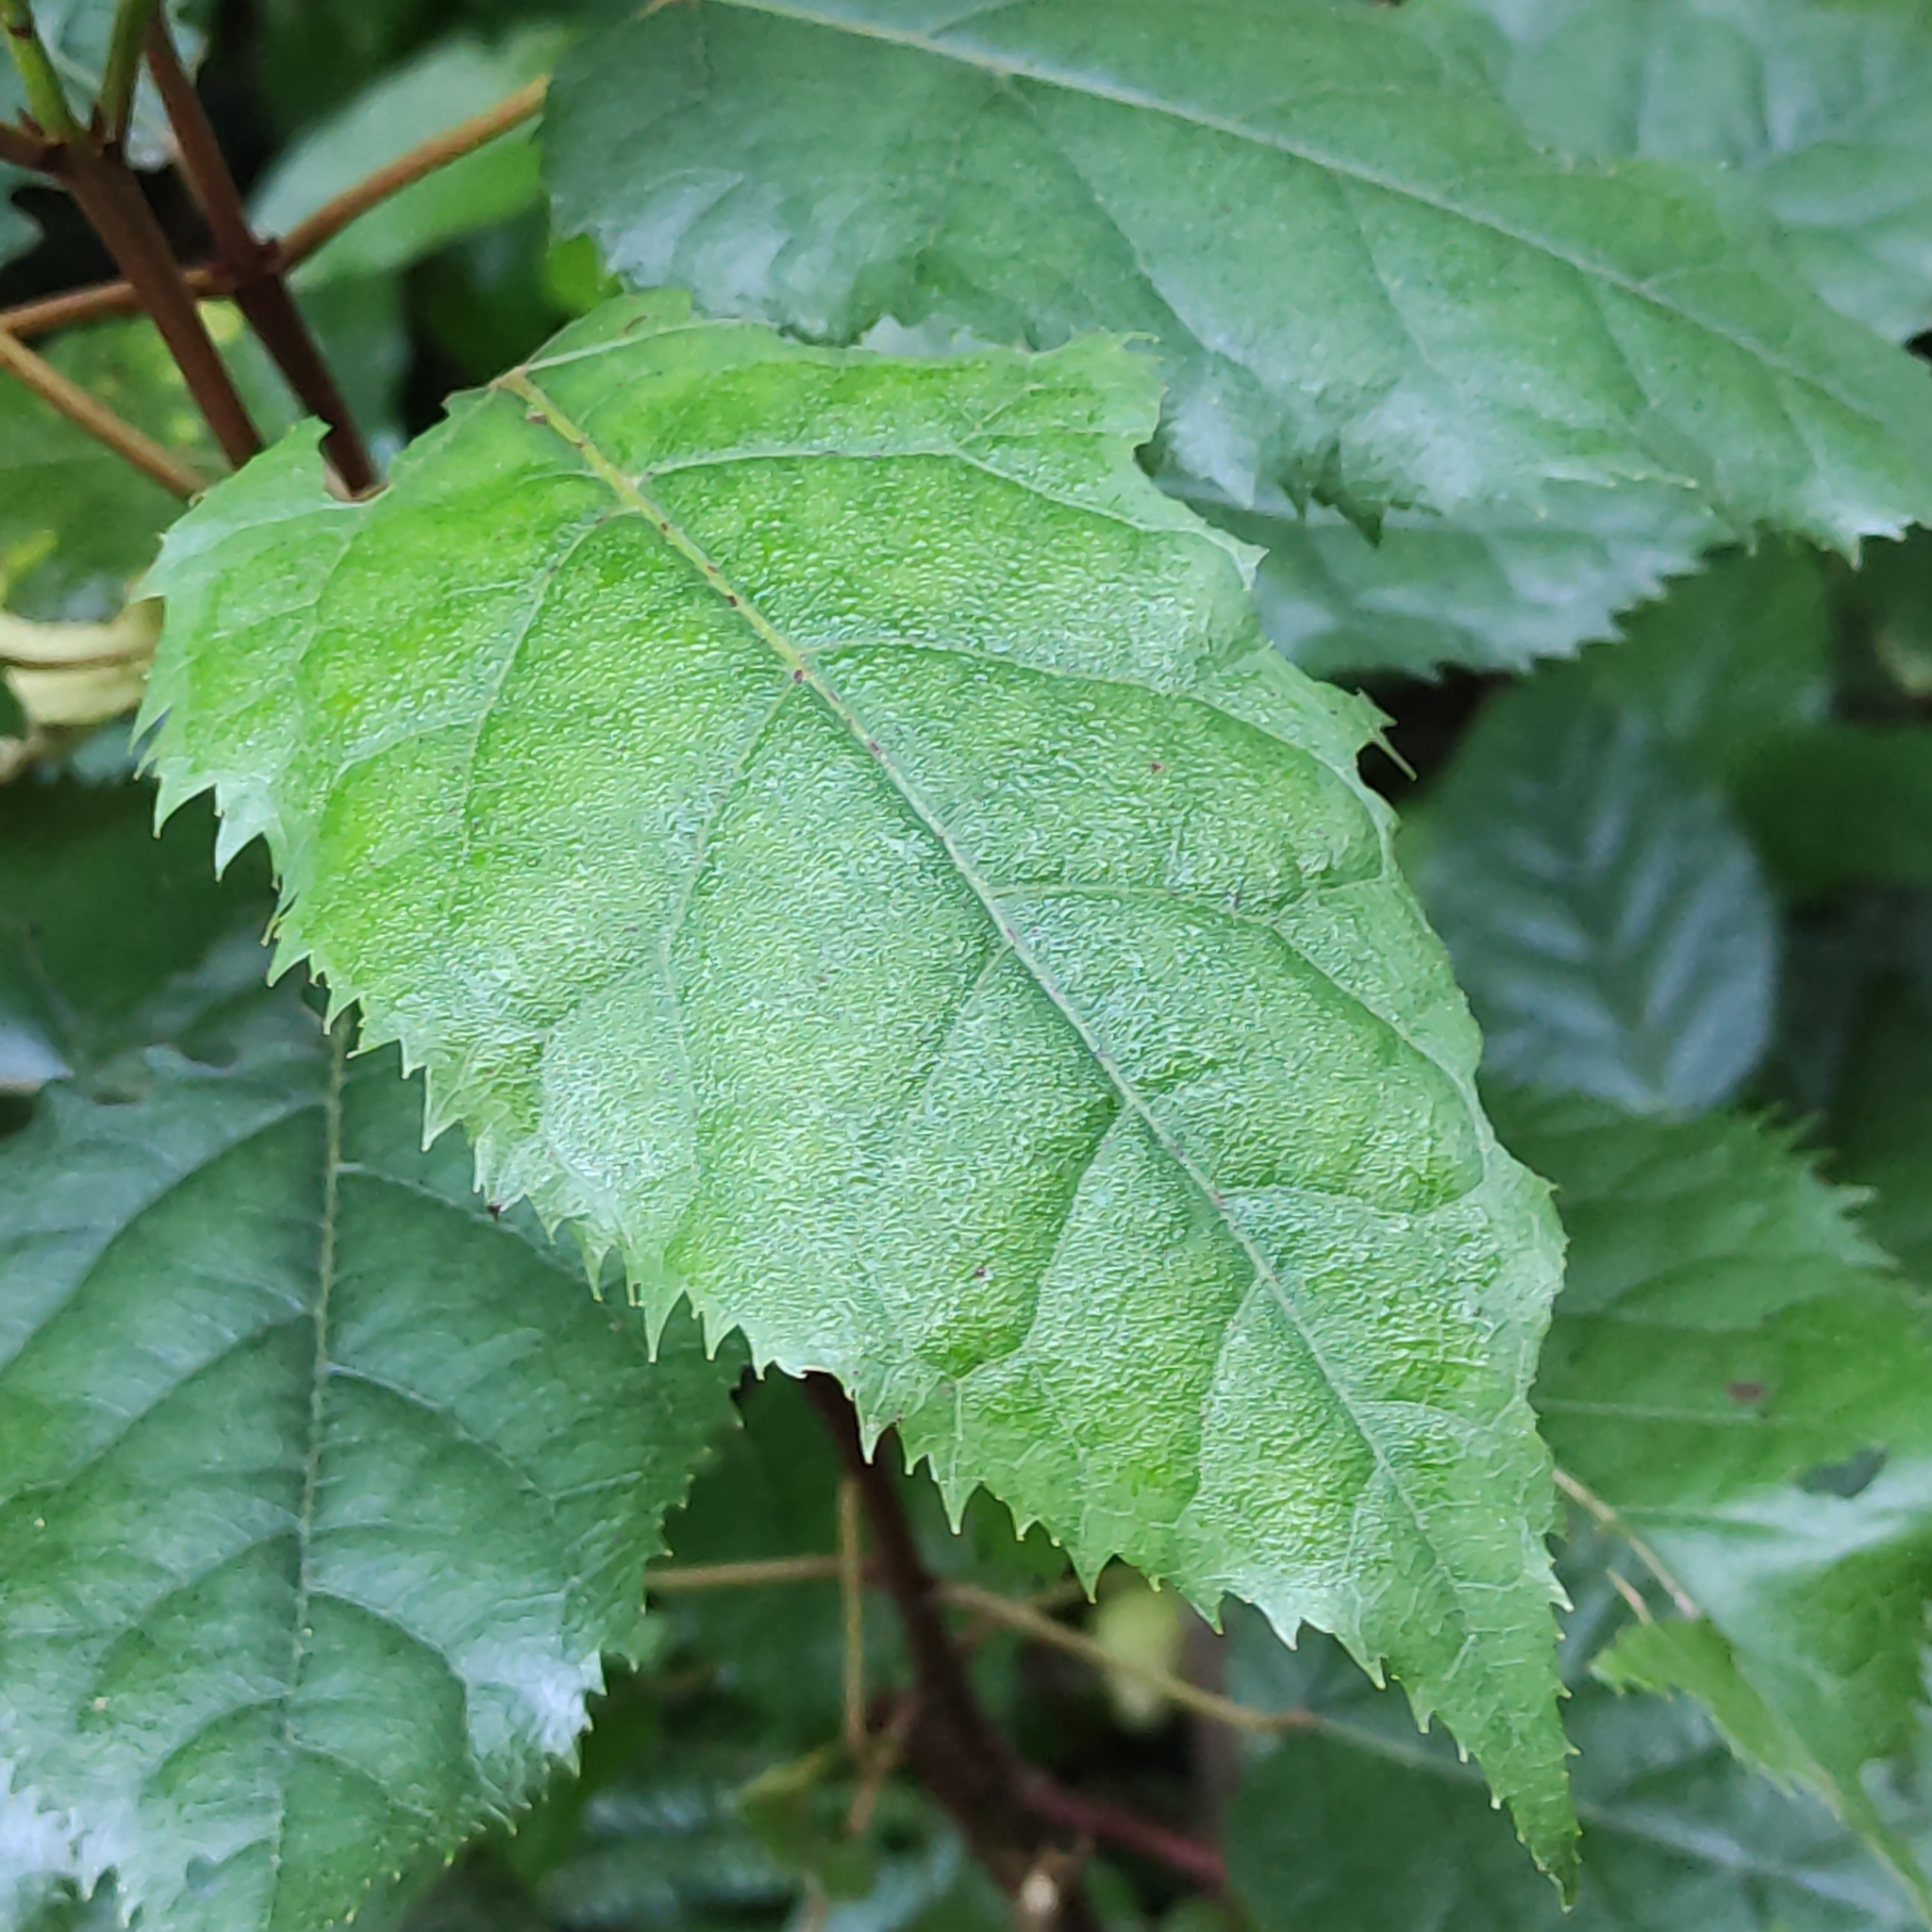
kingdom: Plantae
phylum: Tracheophyta
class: Magnoliopsida
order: Oxalidales
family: Elaeocarpaceae
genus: Aristotelia
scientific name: Aristotelia serrata
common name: New zealand wineberry
